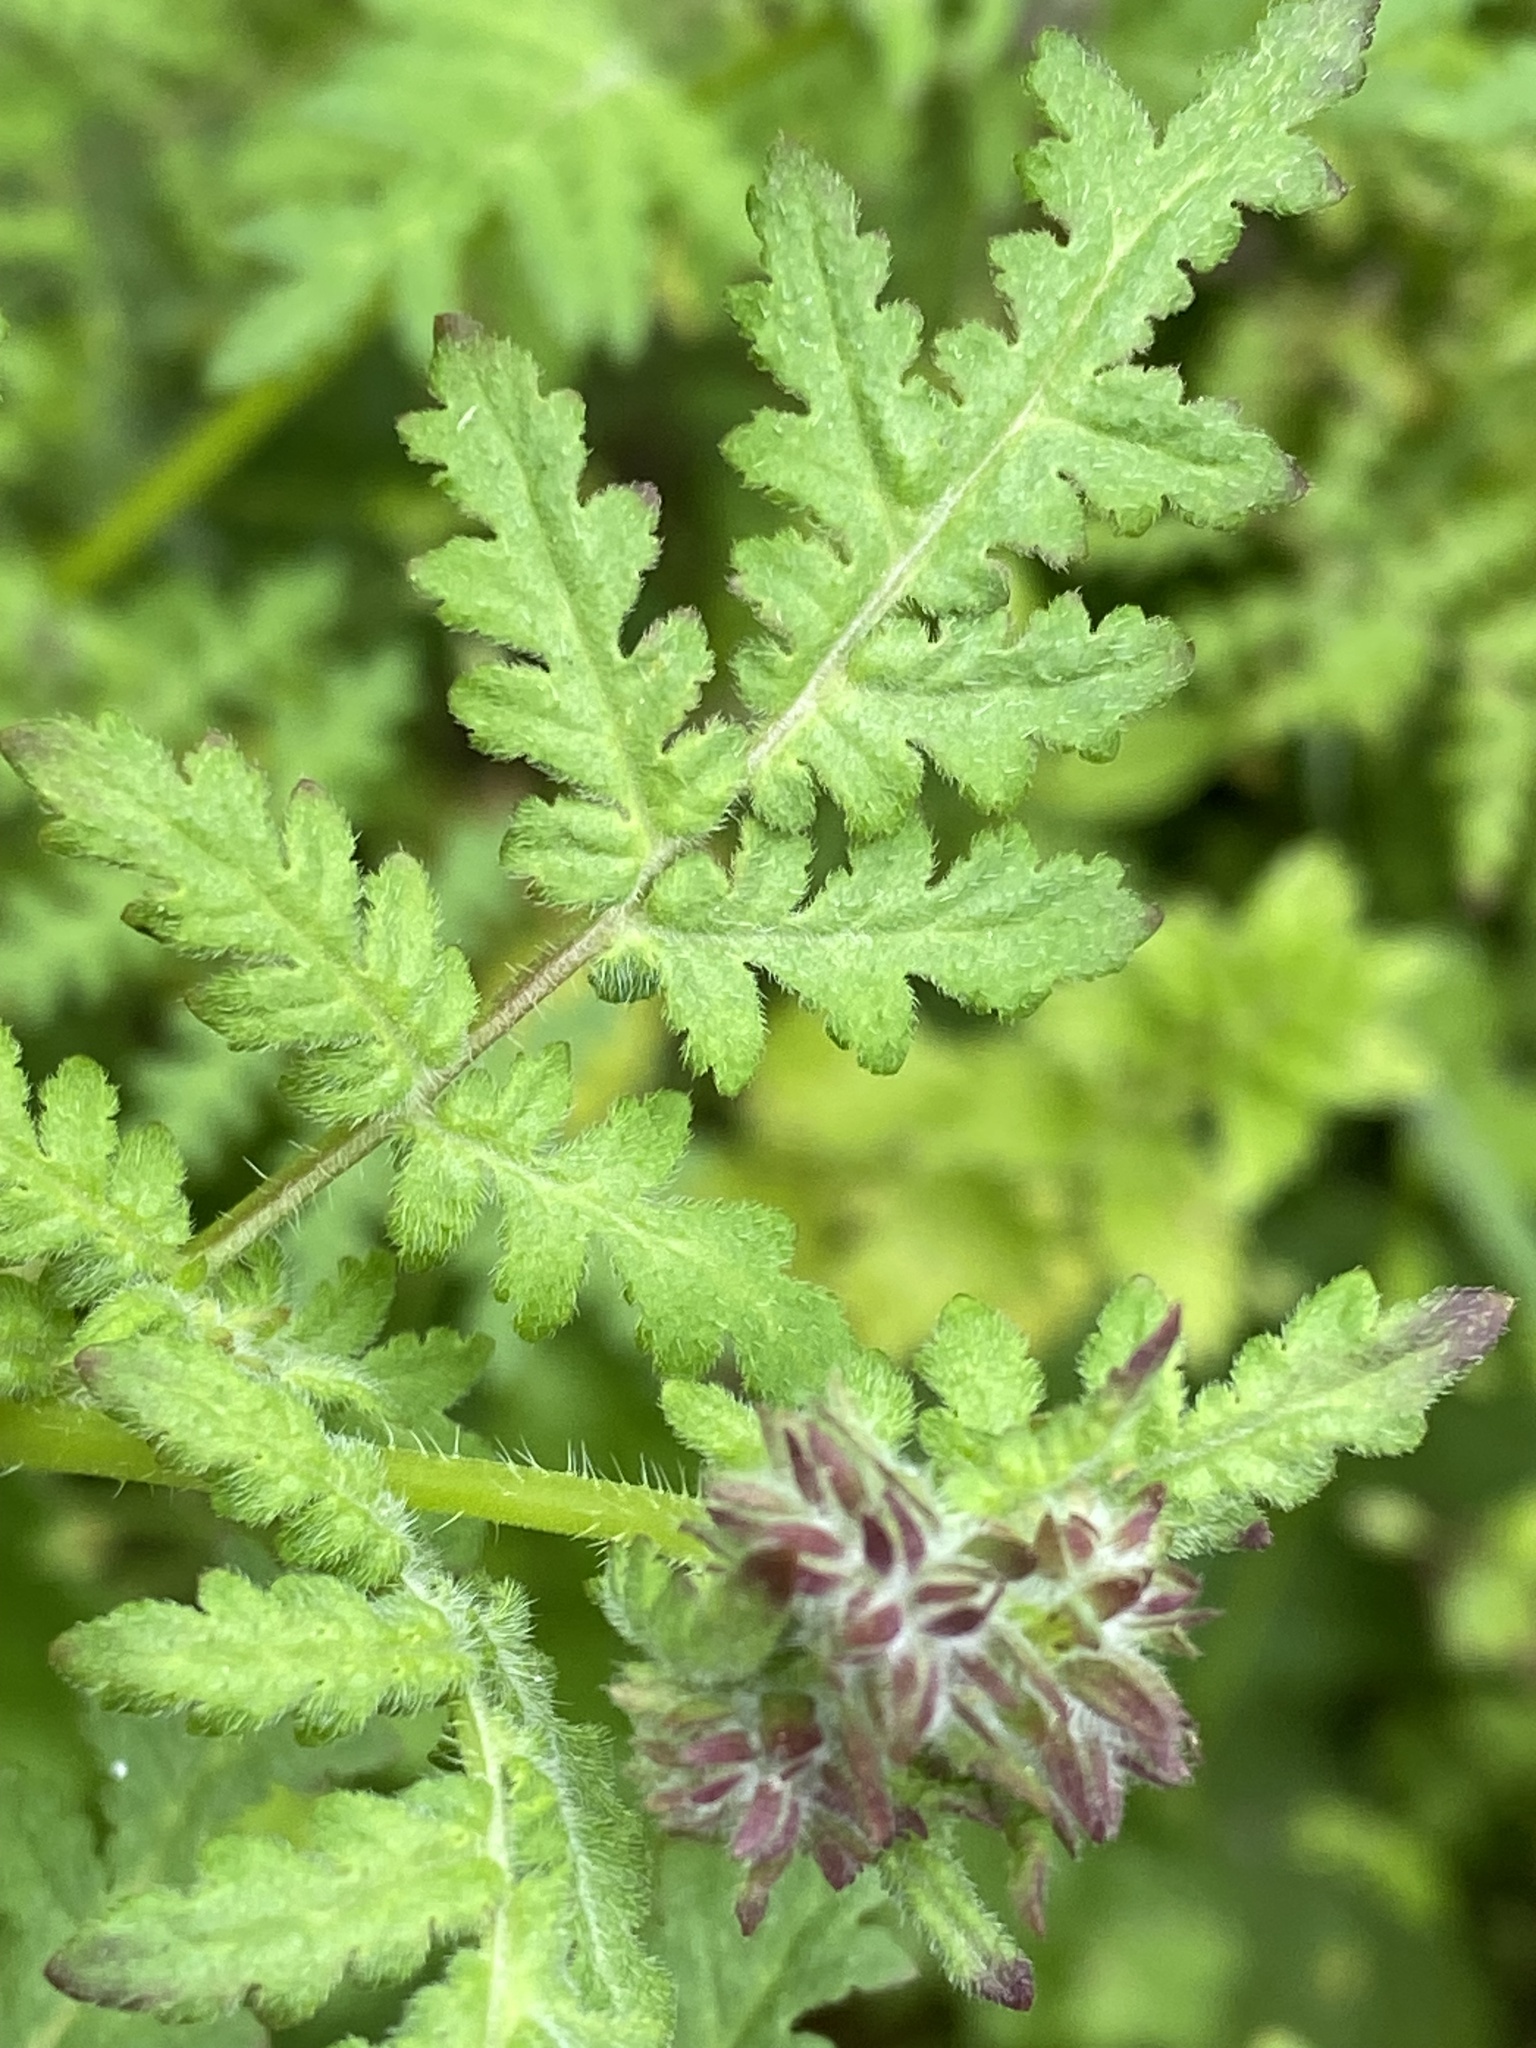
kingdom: Plantae
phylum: Tracheophyta
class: Magnoliopsida
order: Boraginales
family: Hydrophyllaceae
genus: Phacelia
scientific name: Phacelia distans
